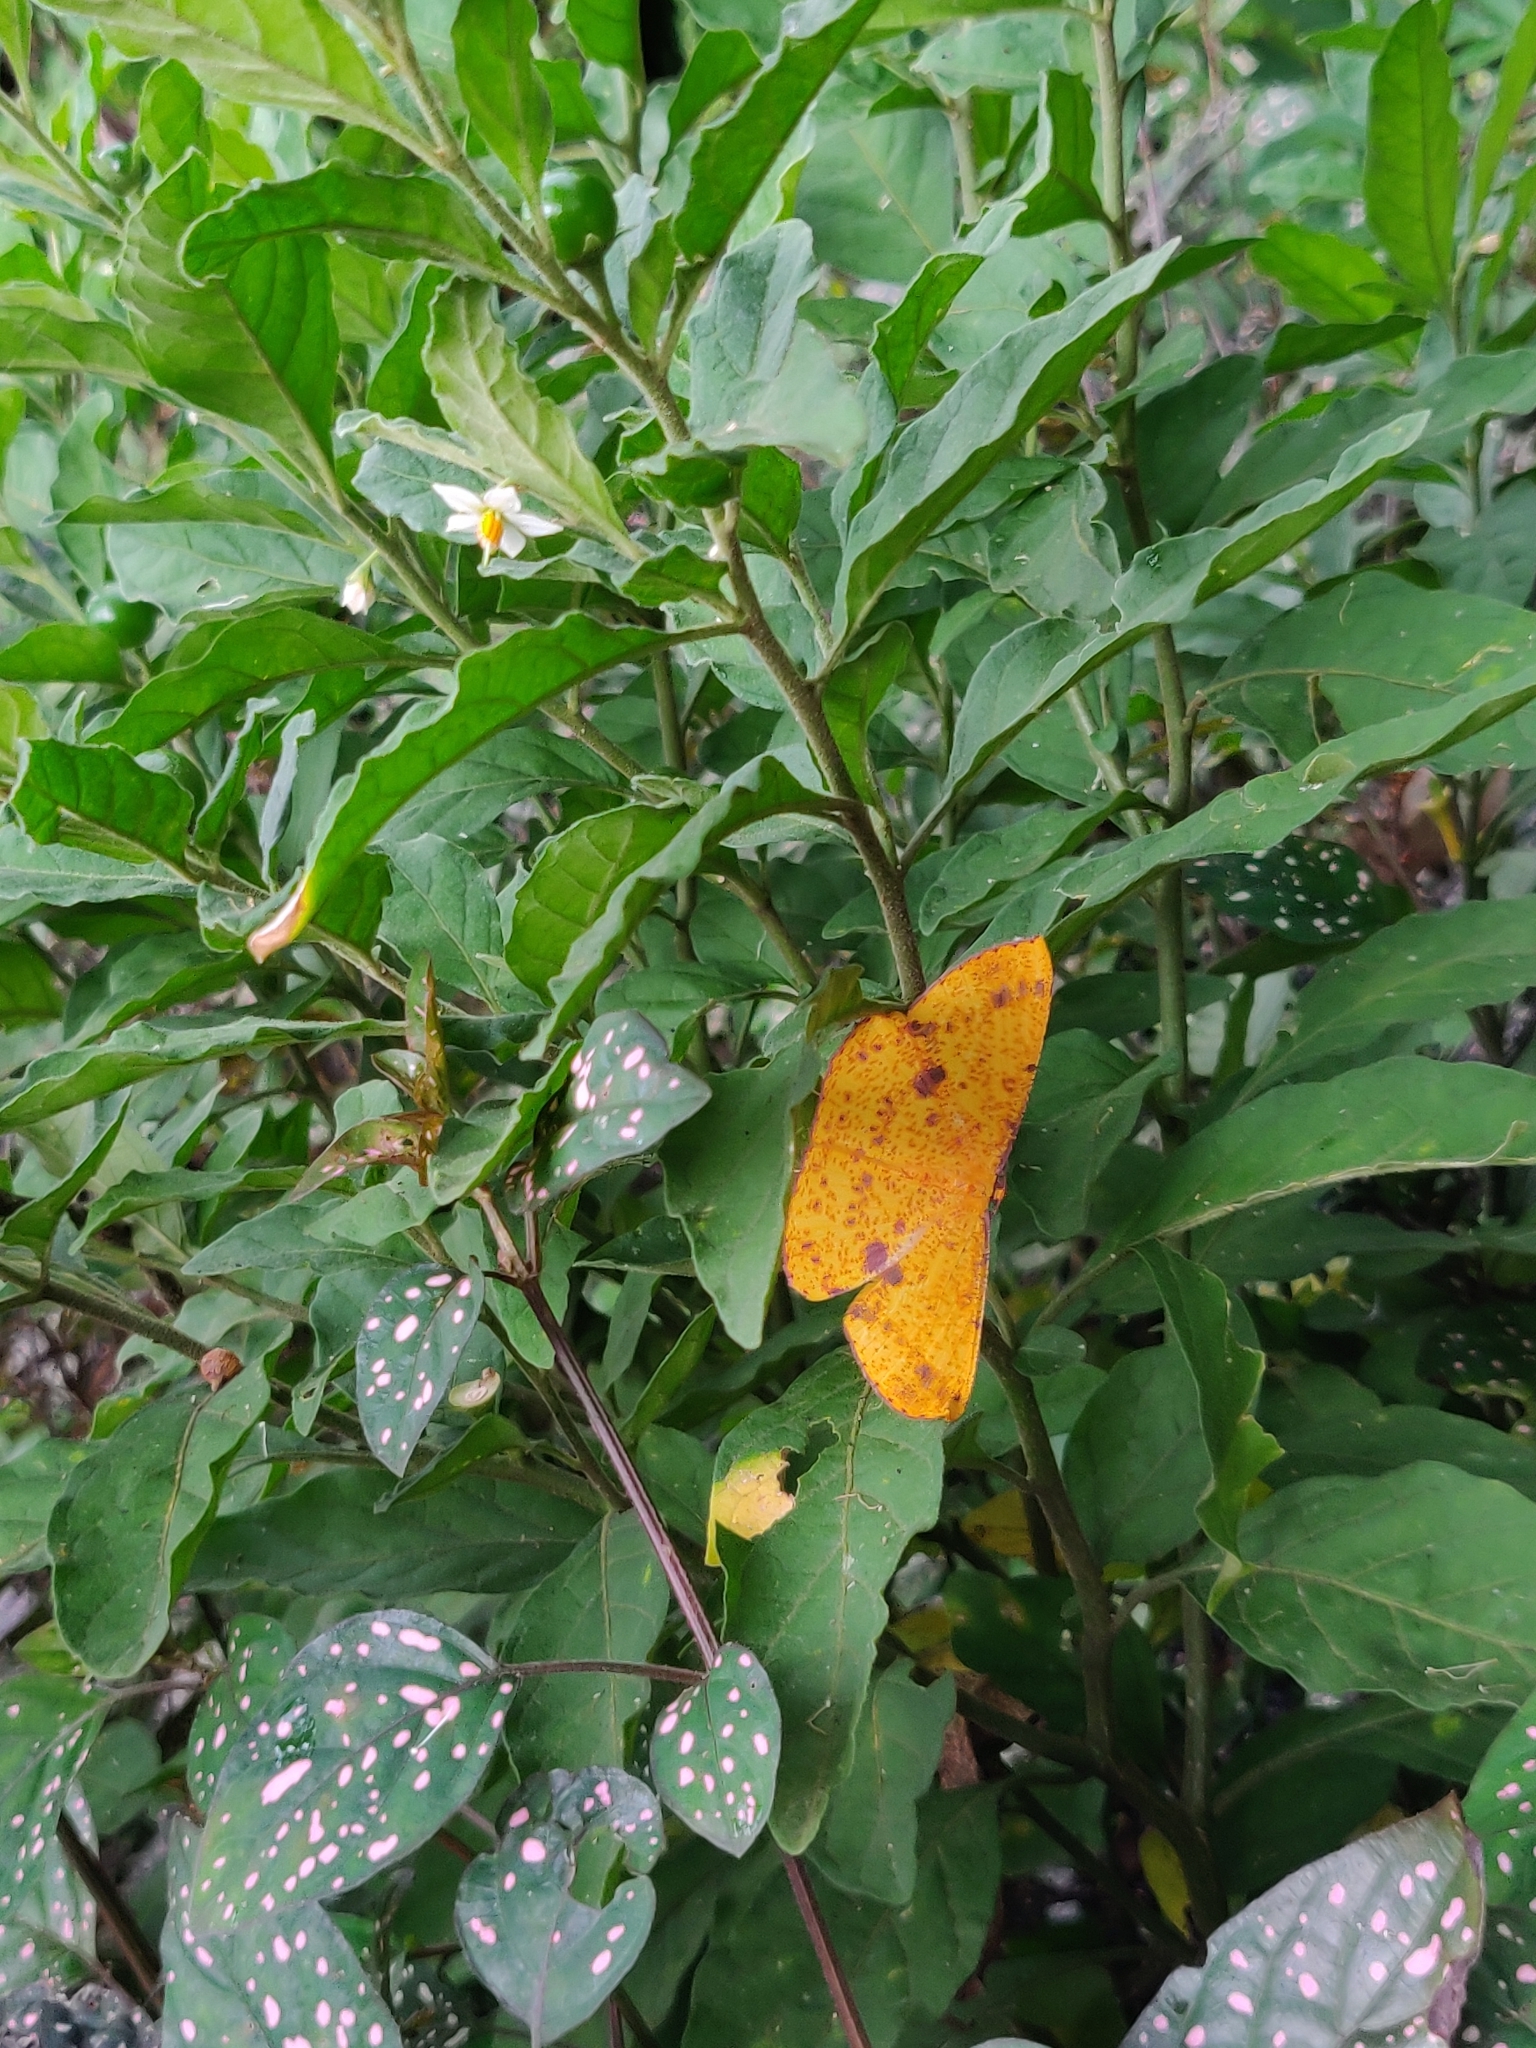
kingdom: Animalia
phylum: Arthropoda
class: Insecta
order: Lepidoptera
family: Geometridae
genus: Eumelea
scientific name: Eumelea ludovicata
